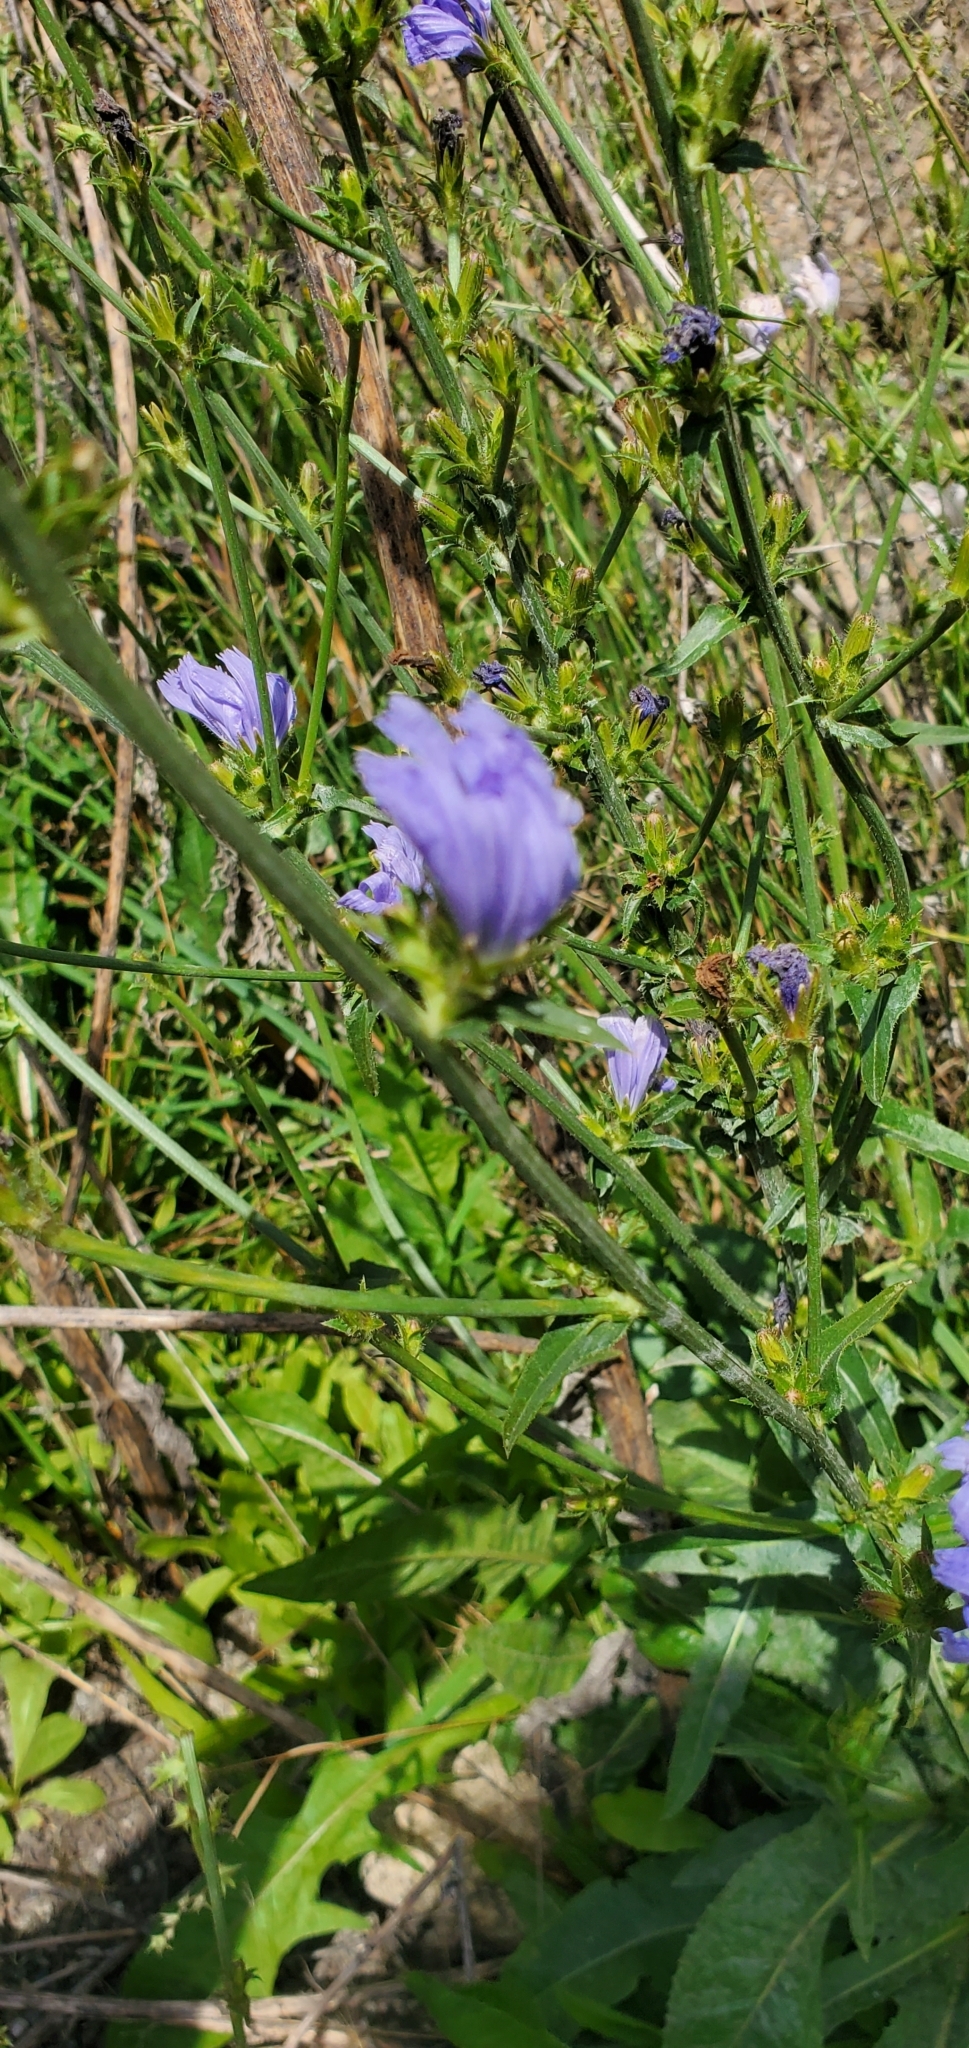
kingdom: Plantae
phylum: Tracheophyta
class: Magnoliopsida
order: Asterales
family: Asteraceae
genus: Cichorium
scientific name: Cichorium intybus
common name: Chicory
